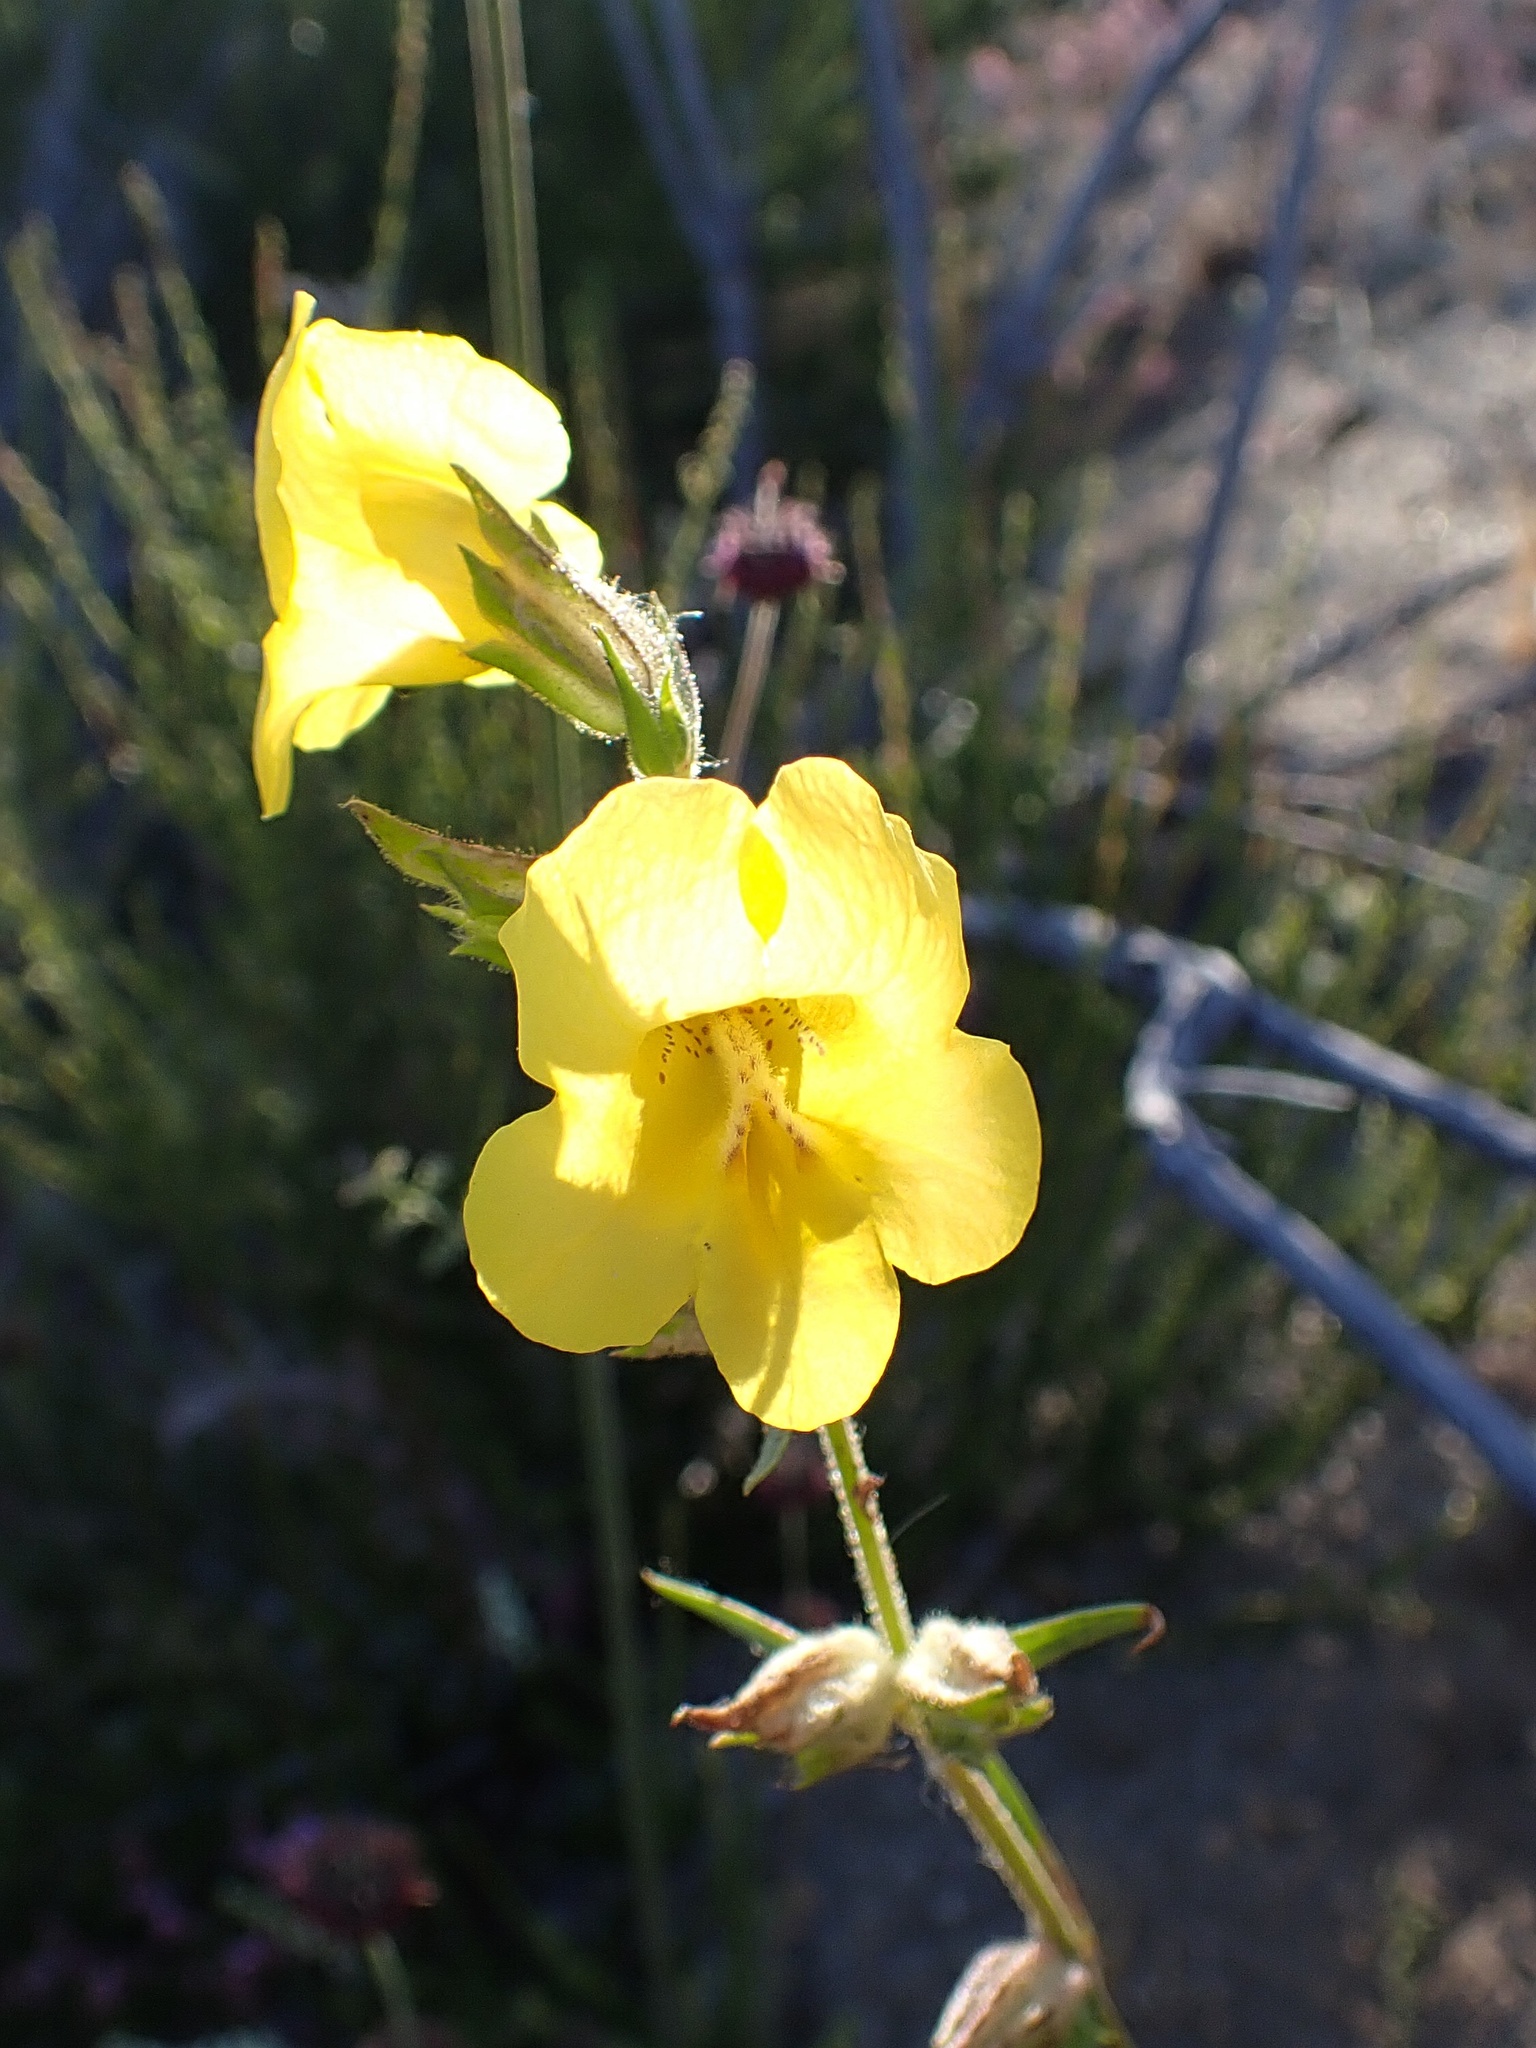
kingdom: Plantae
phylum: Tracheophyta
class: Magnoliopsida
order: Lamiales
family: Phrymaceae
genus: Diplacus
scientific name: Diplacus brevipes
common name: Wide-throat yellow monkey-flower
